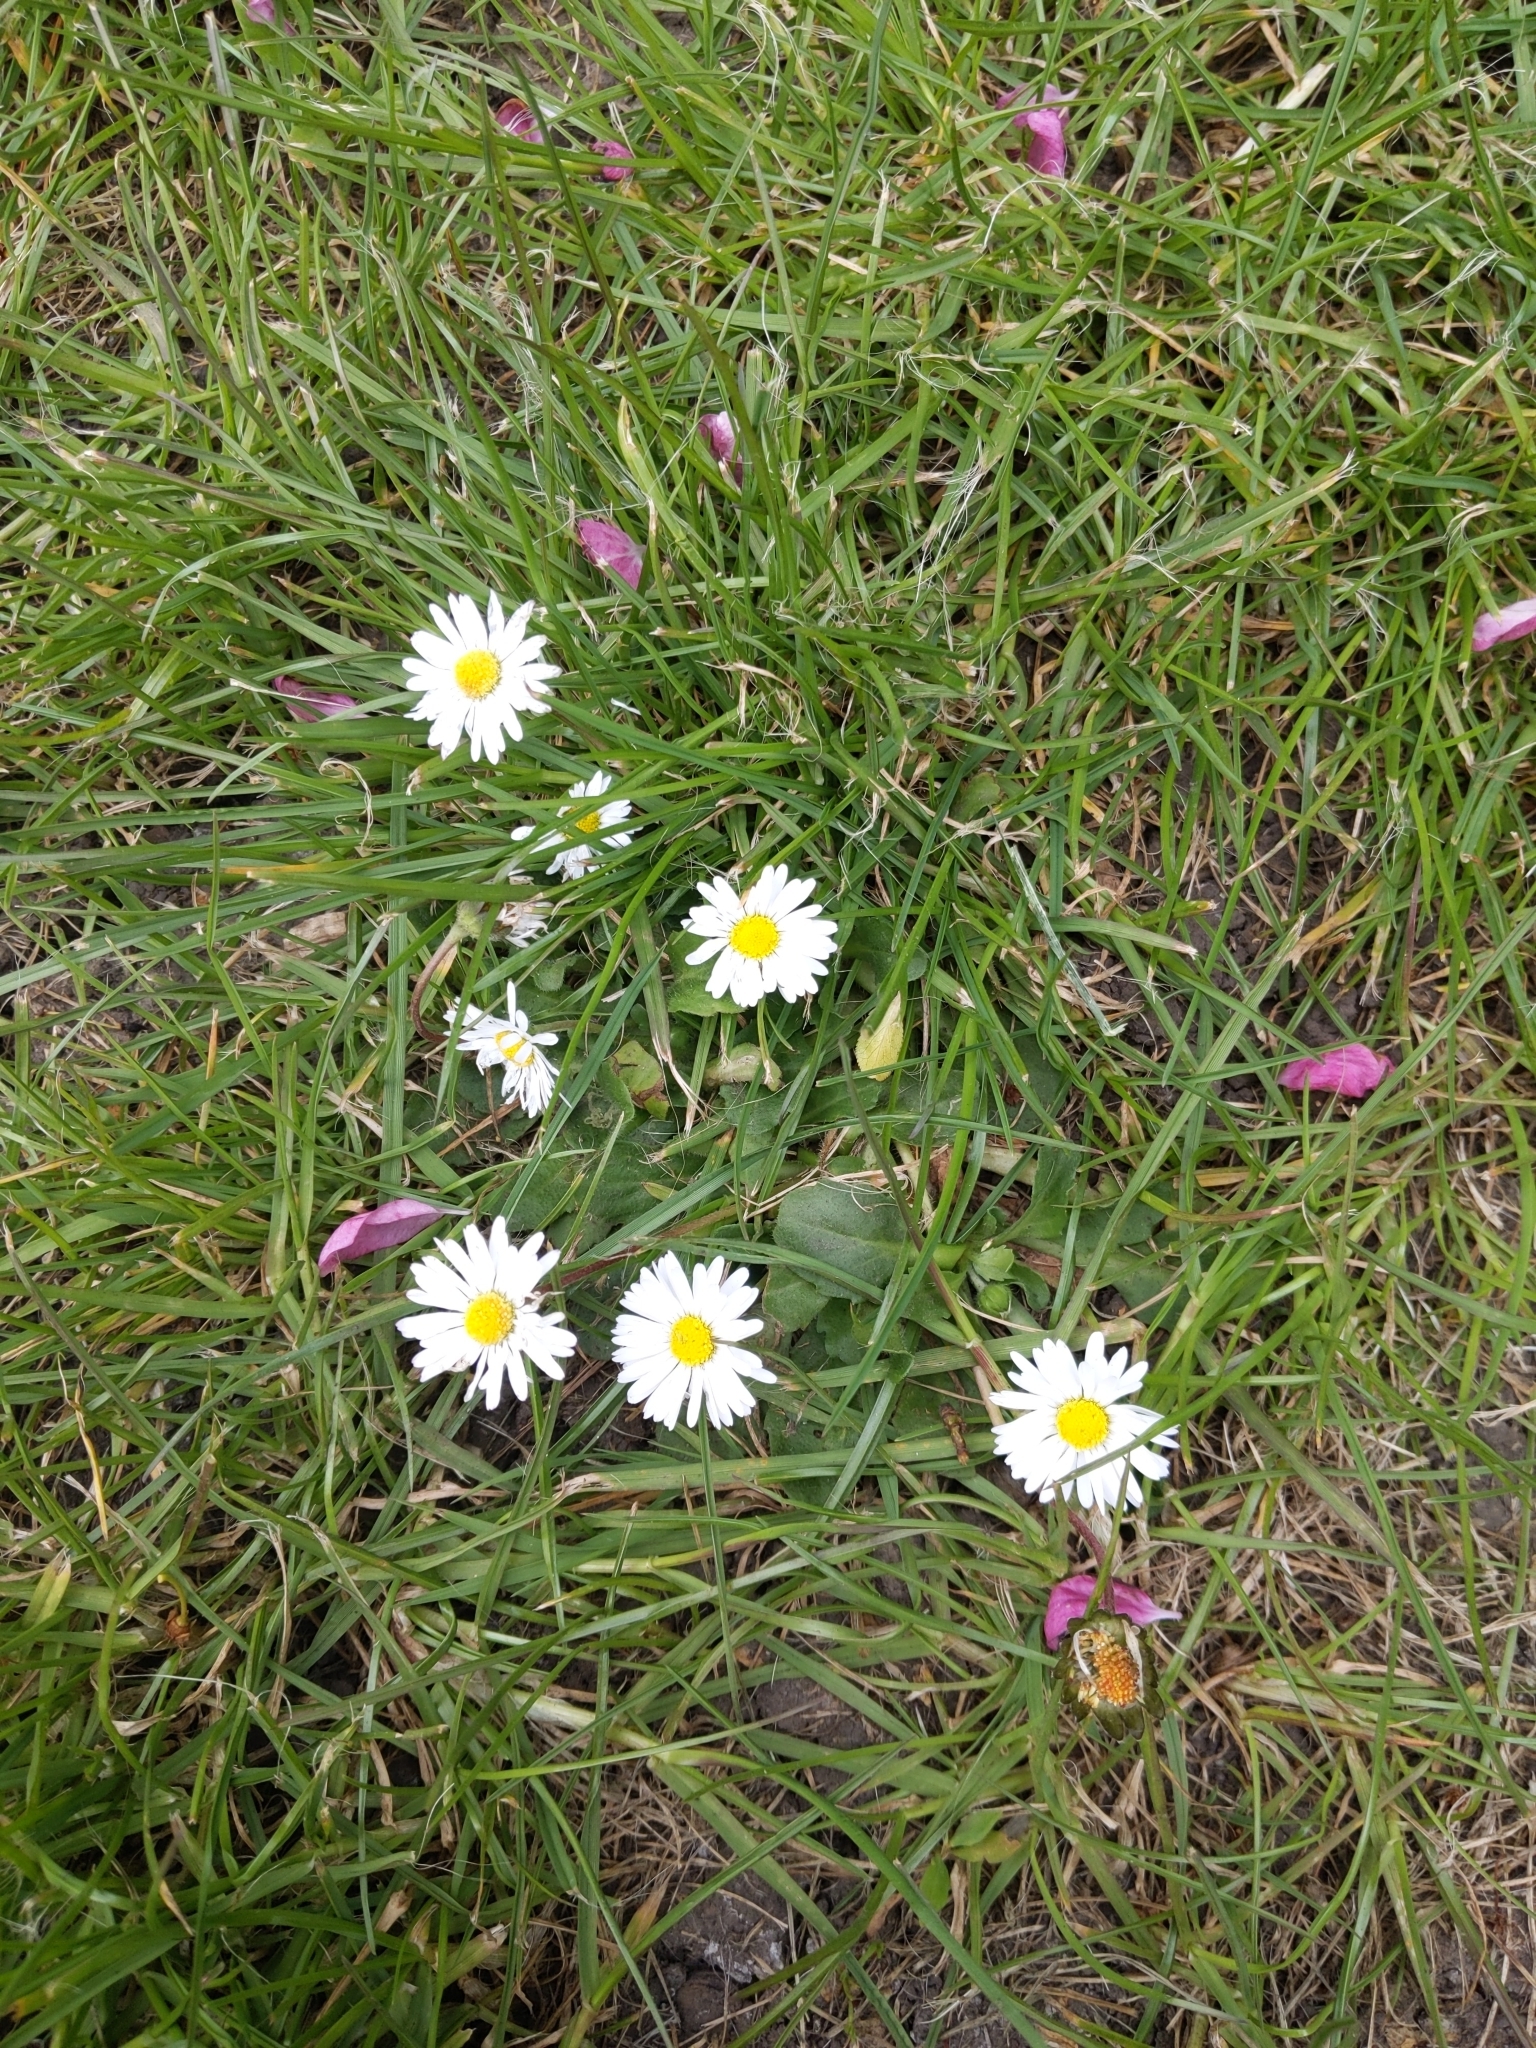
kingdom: Plantae
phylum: Tracheophyta
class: Magnoliopsida
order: Asterales
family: Asteraceae
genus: Bellis
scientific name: Bellis perennis
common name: Lawndaisy
